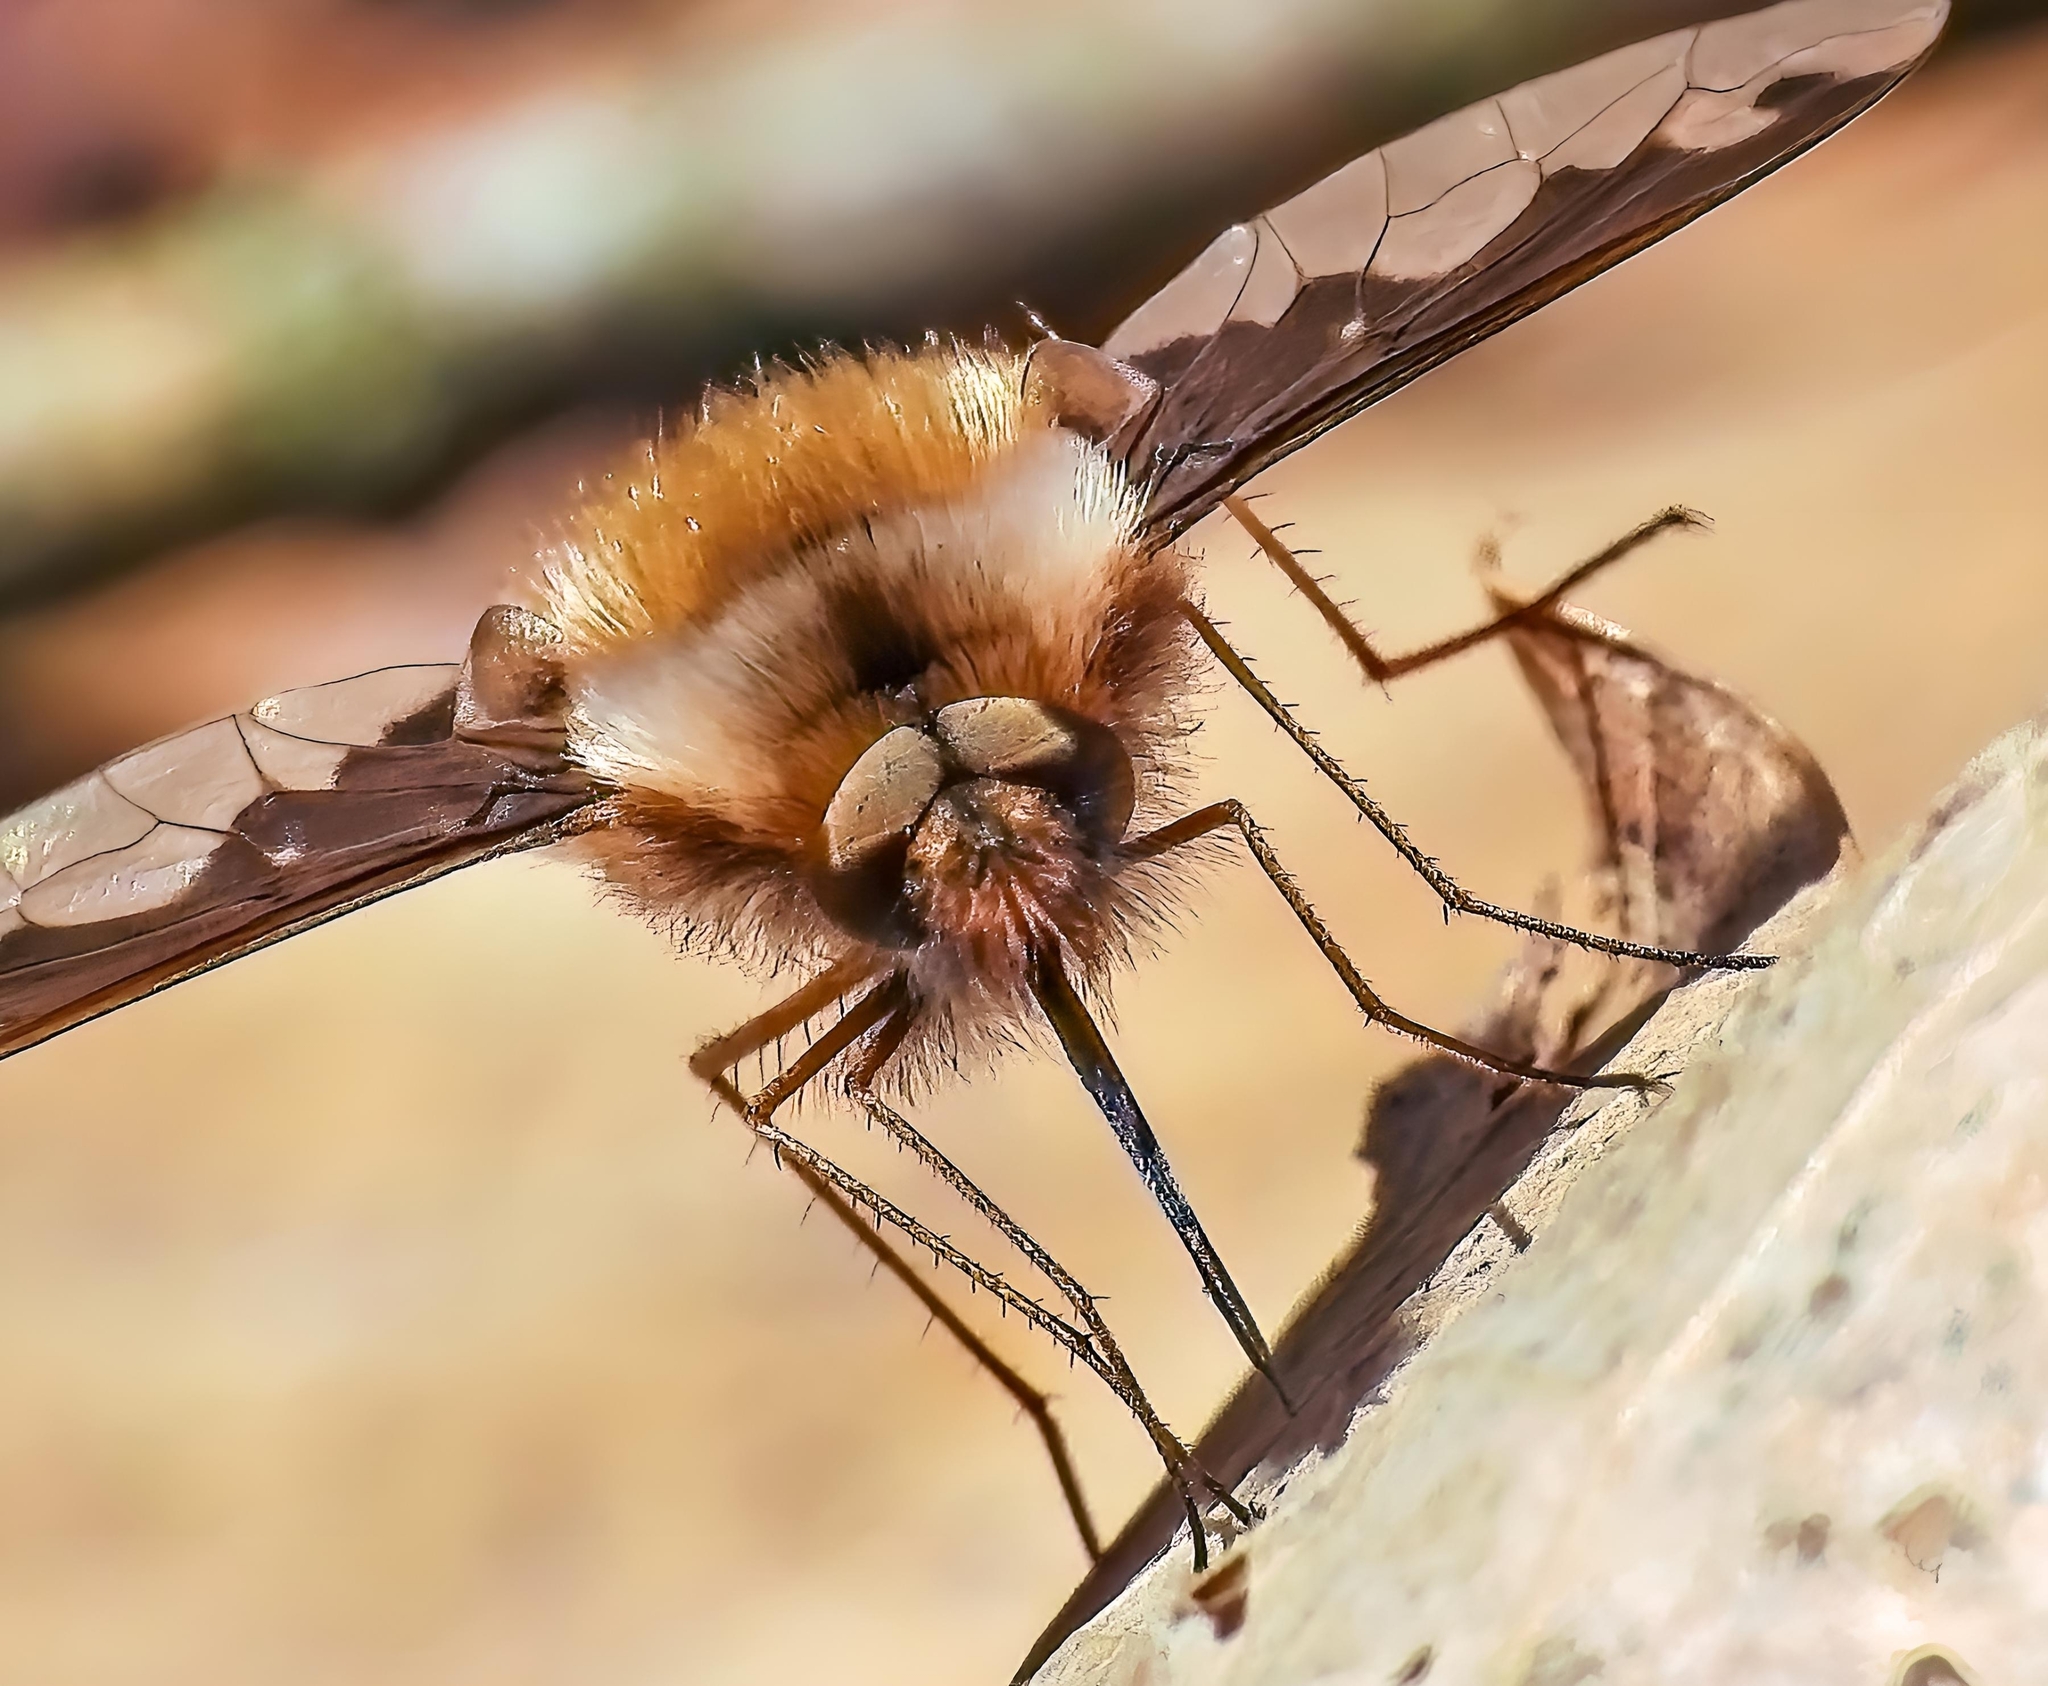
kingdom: Animalia
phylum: Arthropoda
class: Insecta
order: Diptera
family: Bombyliidae
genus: Bombylius
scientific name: Bombylius major
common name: Bee fly
